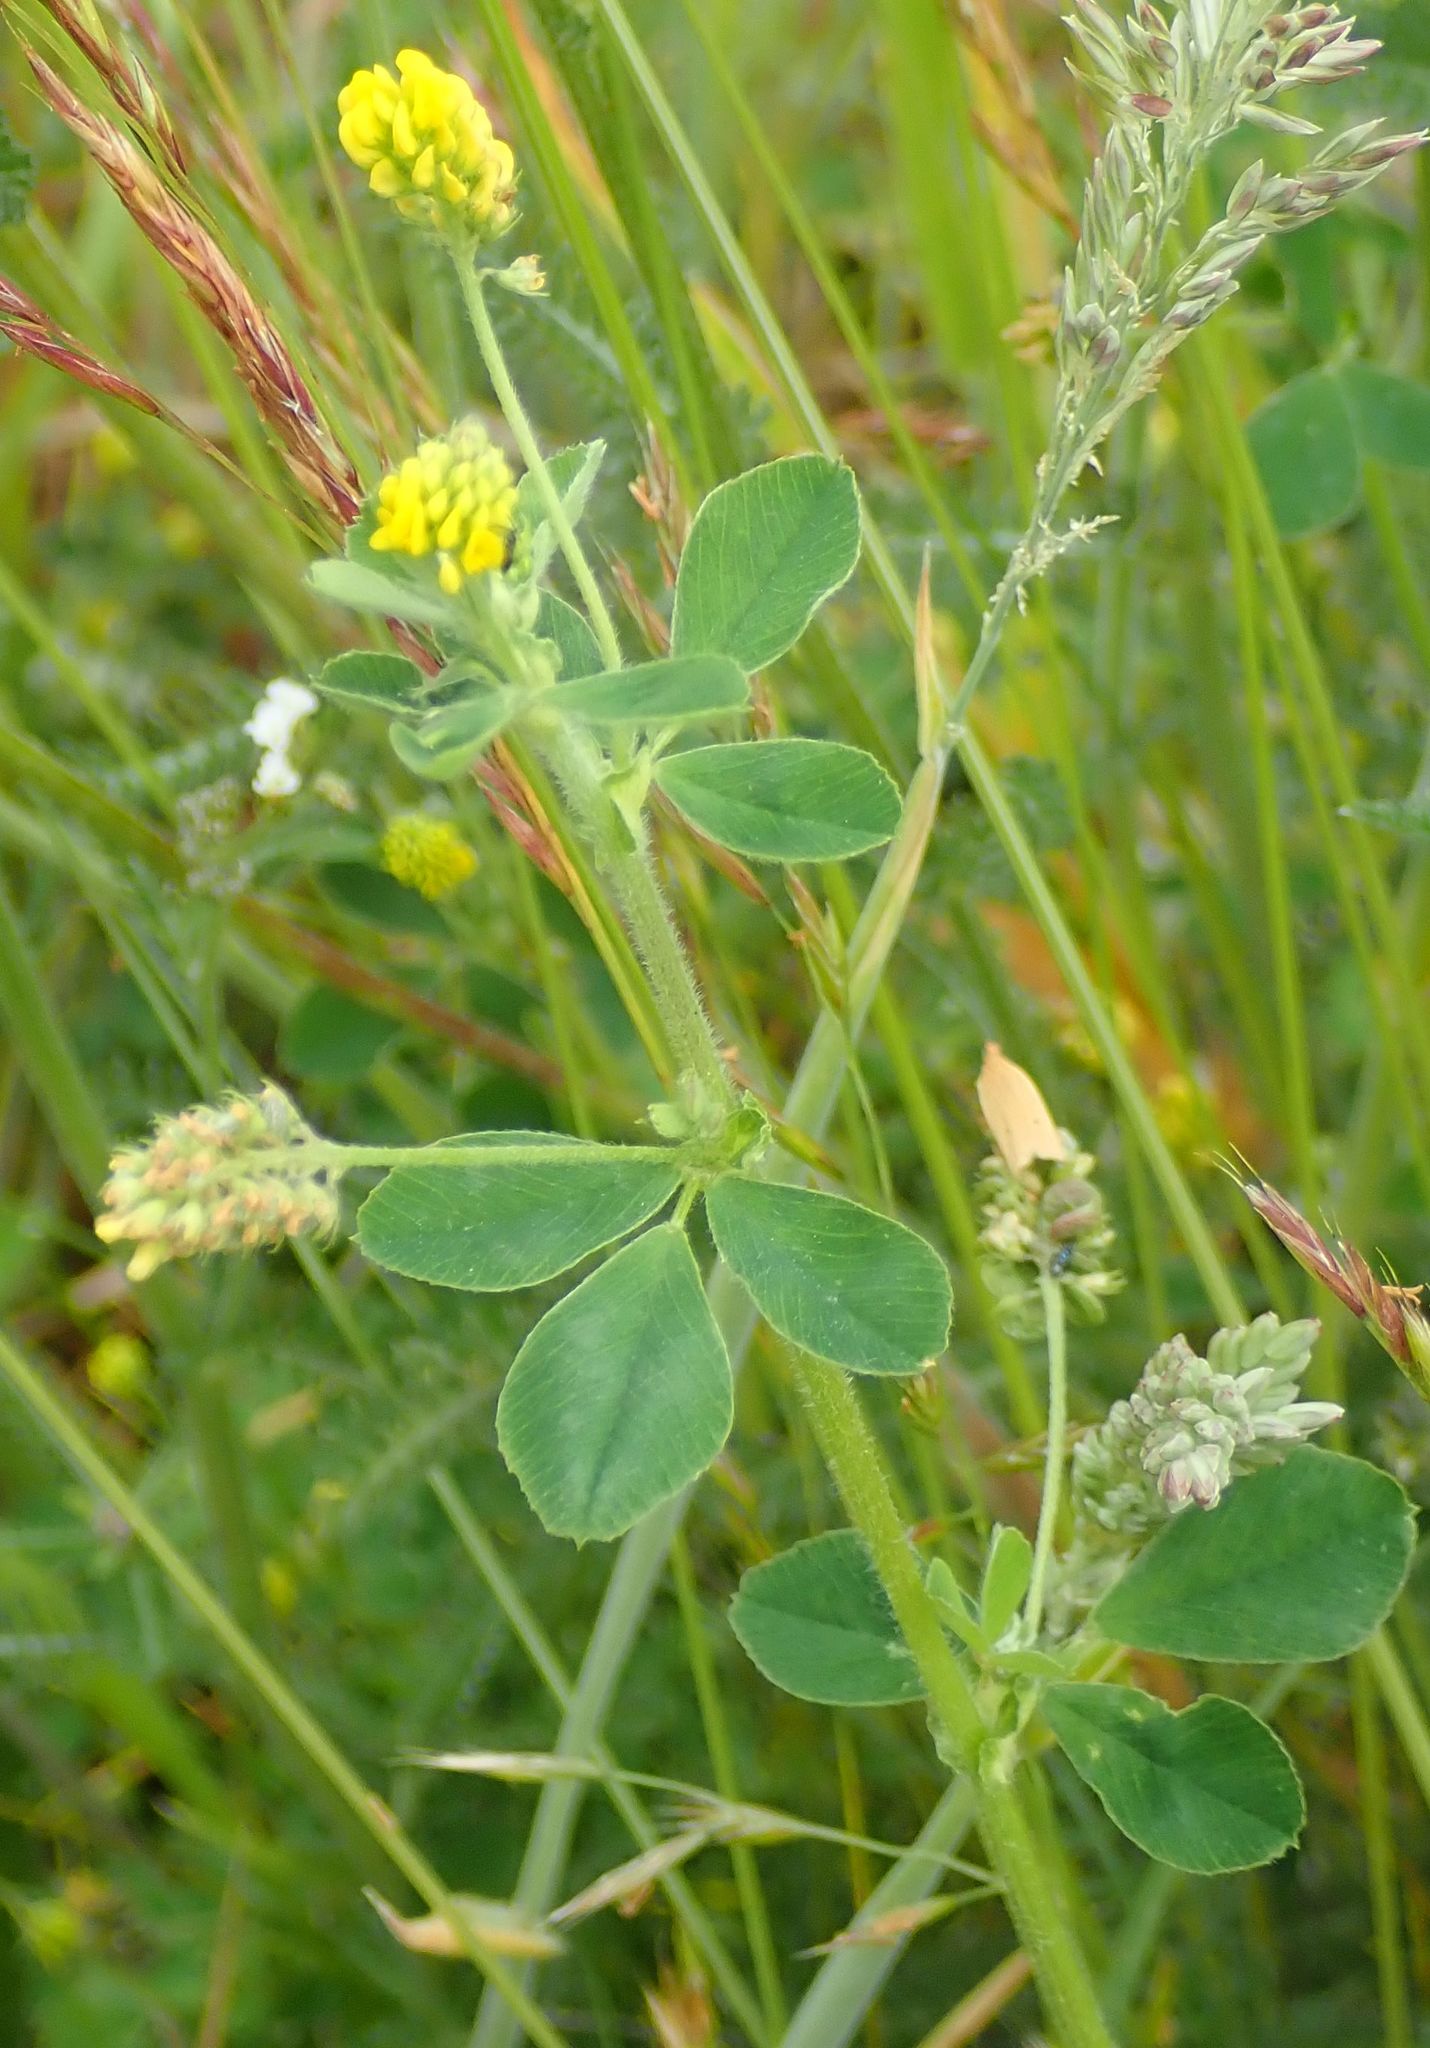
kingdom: Plantae
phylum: Tracheophyta
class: Magnoliopsida
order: Fabales
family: Fabaceae
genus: Medicago
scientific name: Medicago lupulina
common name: Black medick
